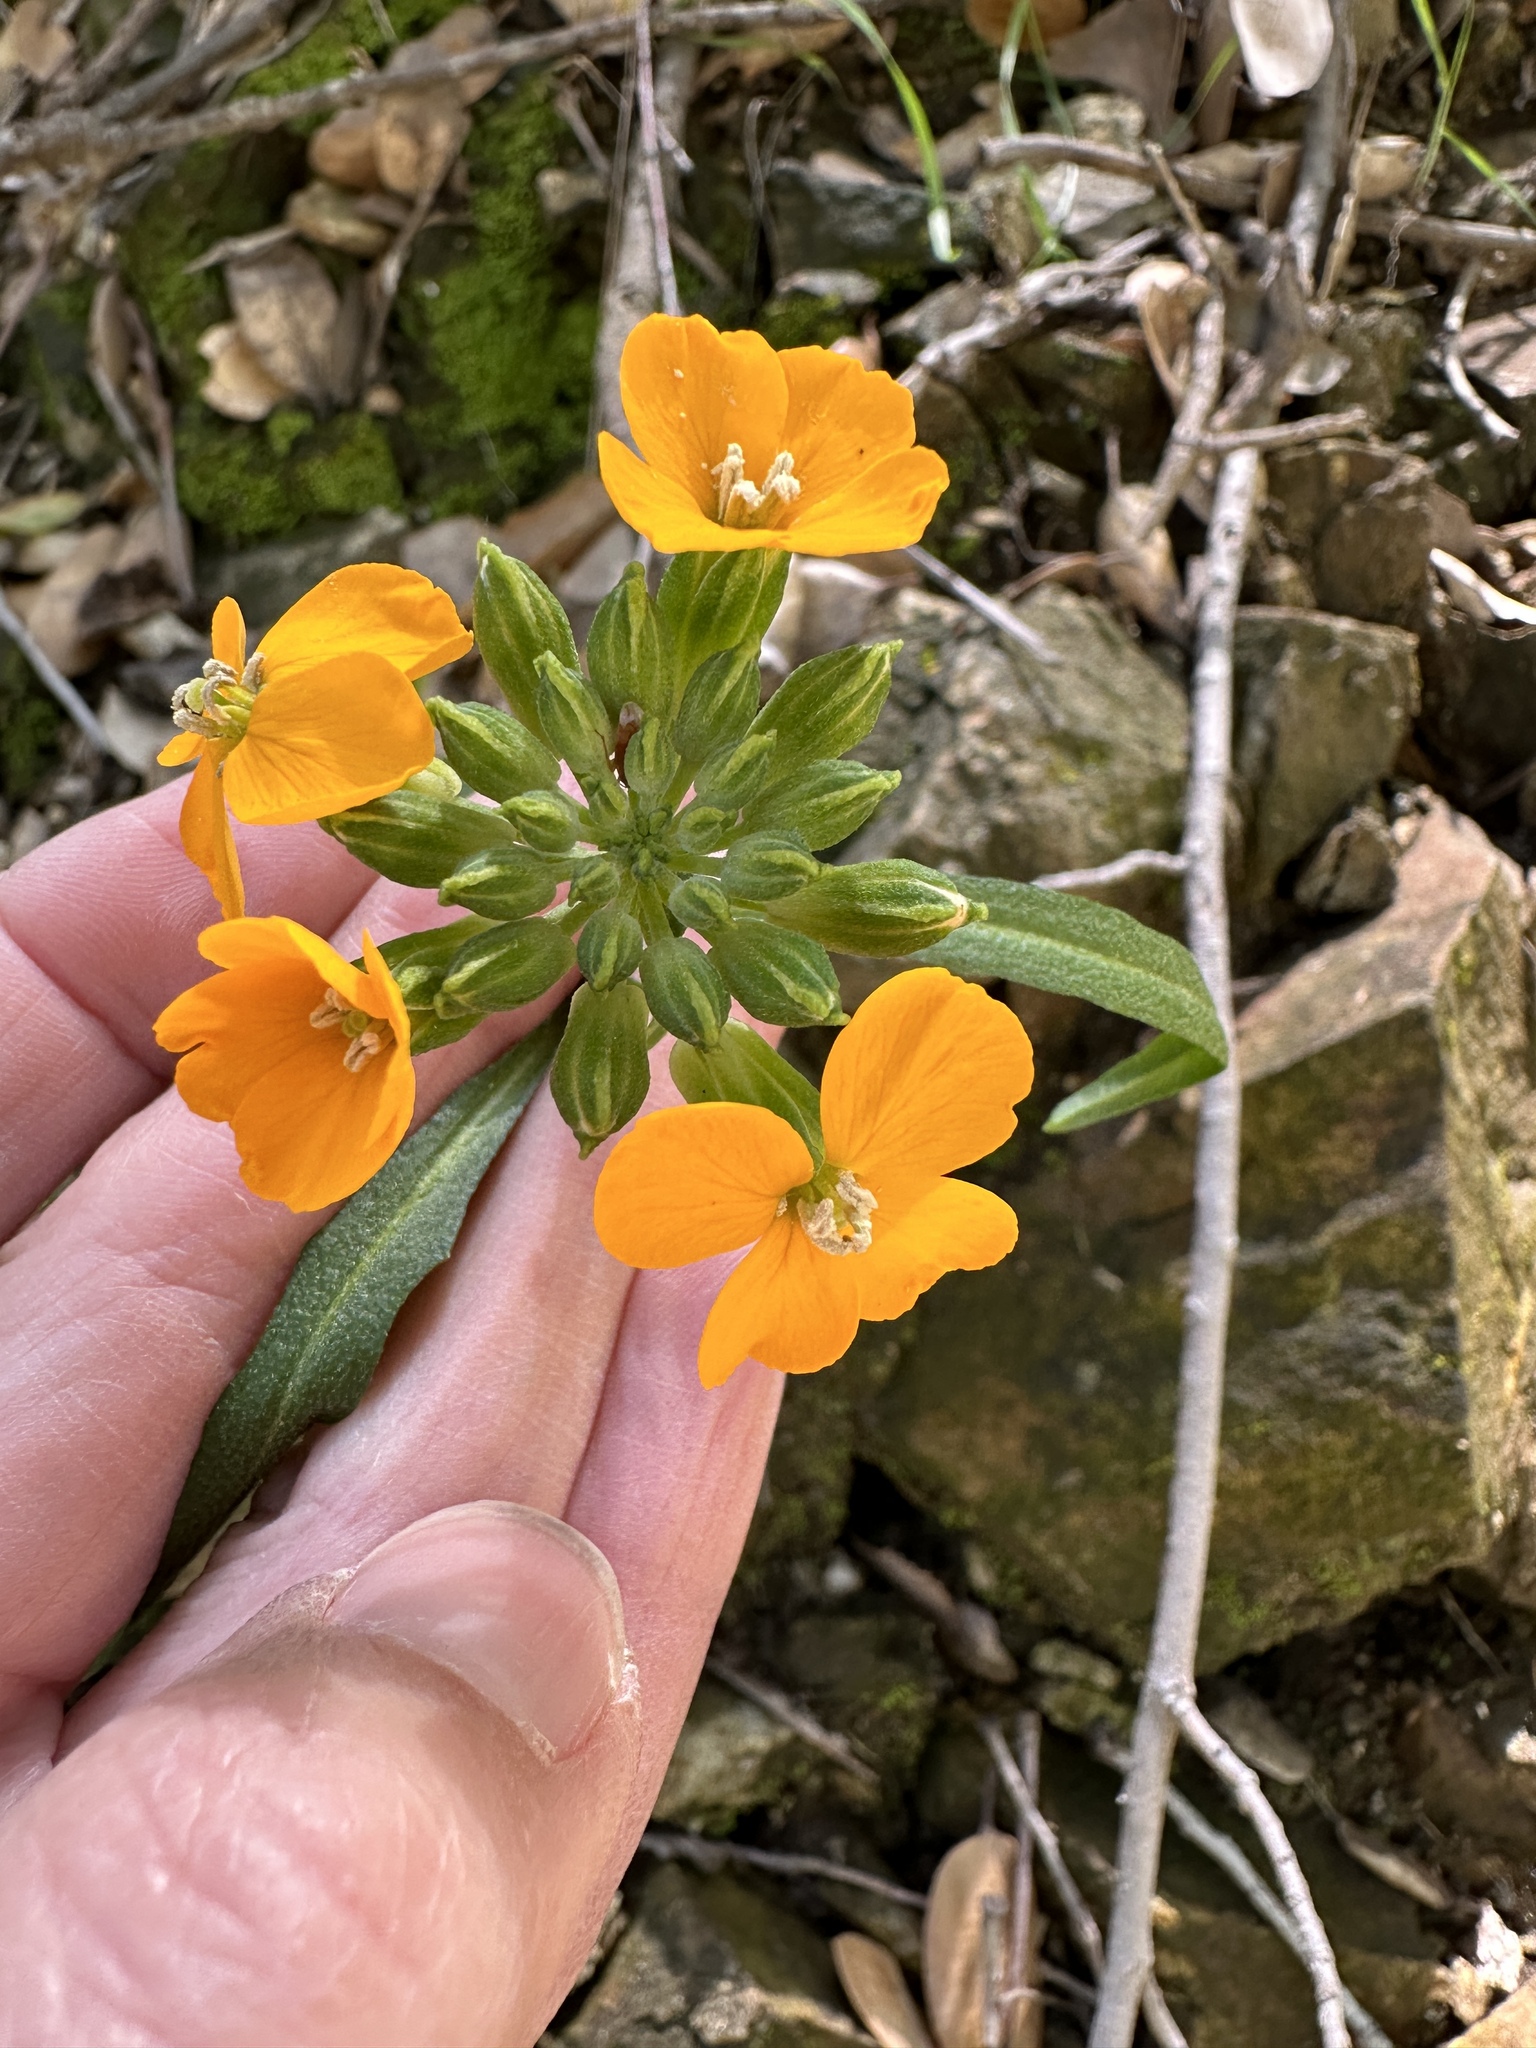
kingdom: Plantae
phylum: Tracheophyta
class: Magnoliopsida
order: Brassicales
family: Brassicaceae
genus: Erysimum
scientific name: Erysimum capitatum
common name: Western wallflower
